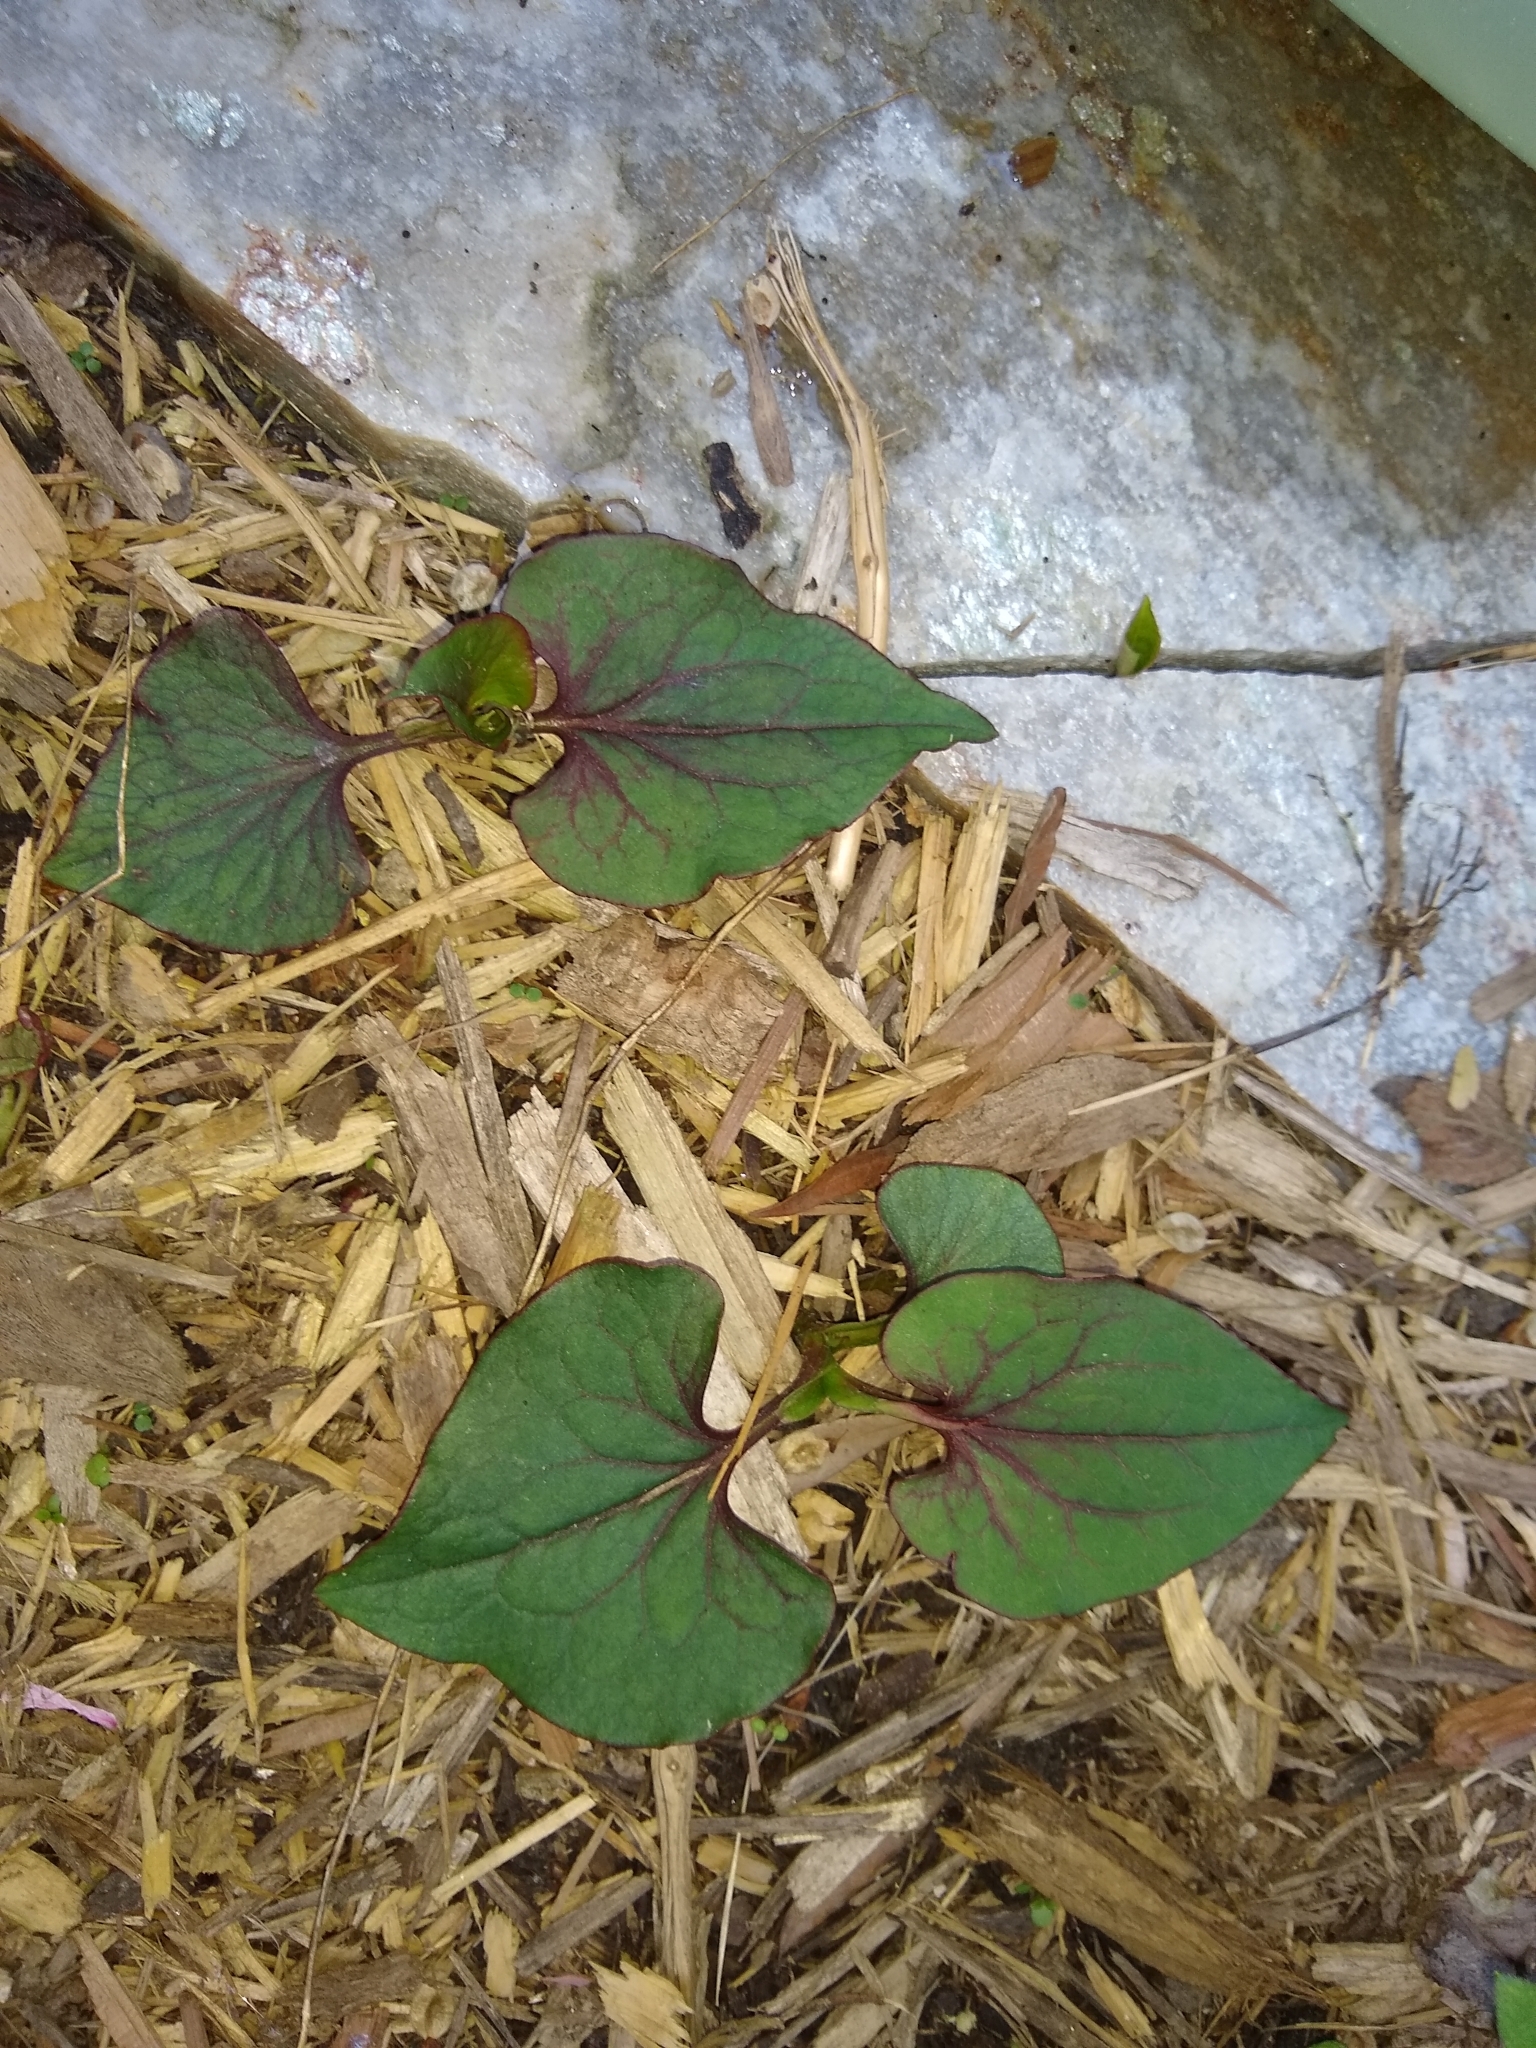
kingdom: Plantae
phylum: Tracheophyta
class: Magnoliopsida
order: Piperales
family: Saururaceae
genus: Houttuynia
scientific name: Houttuynia cordata
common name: Chameleon
